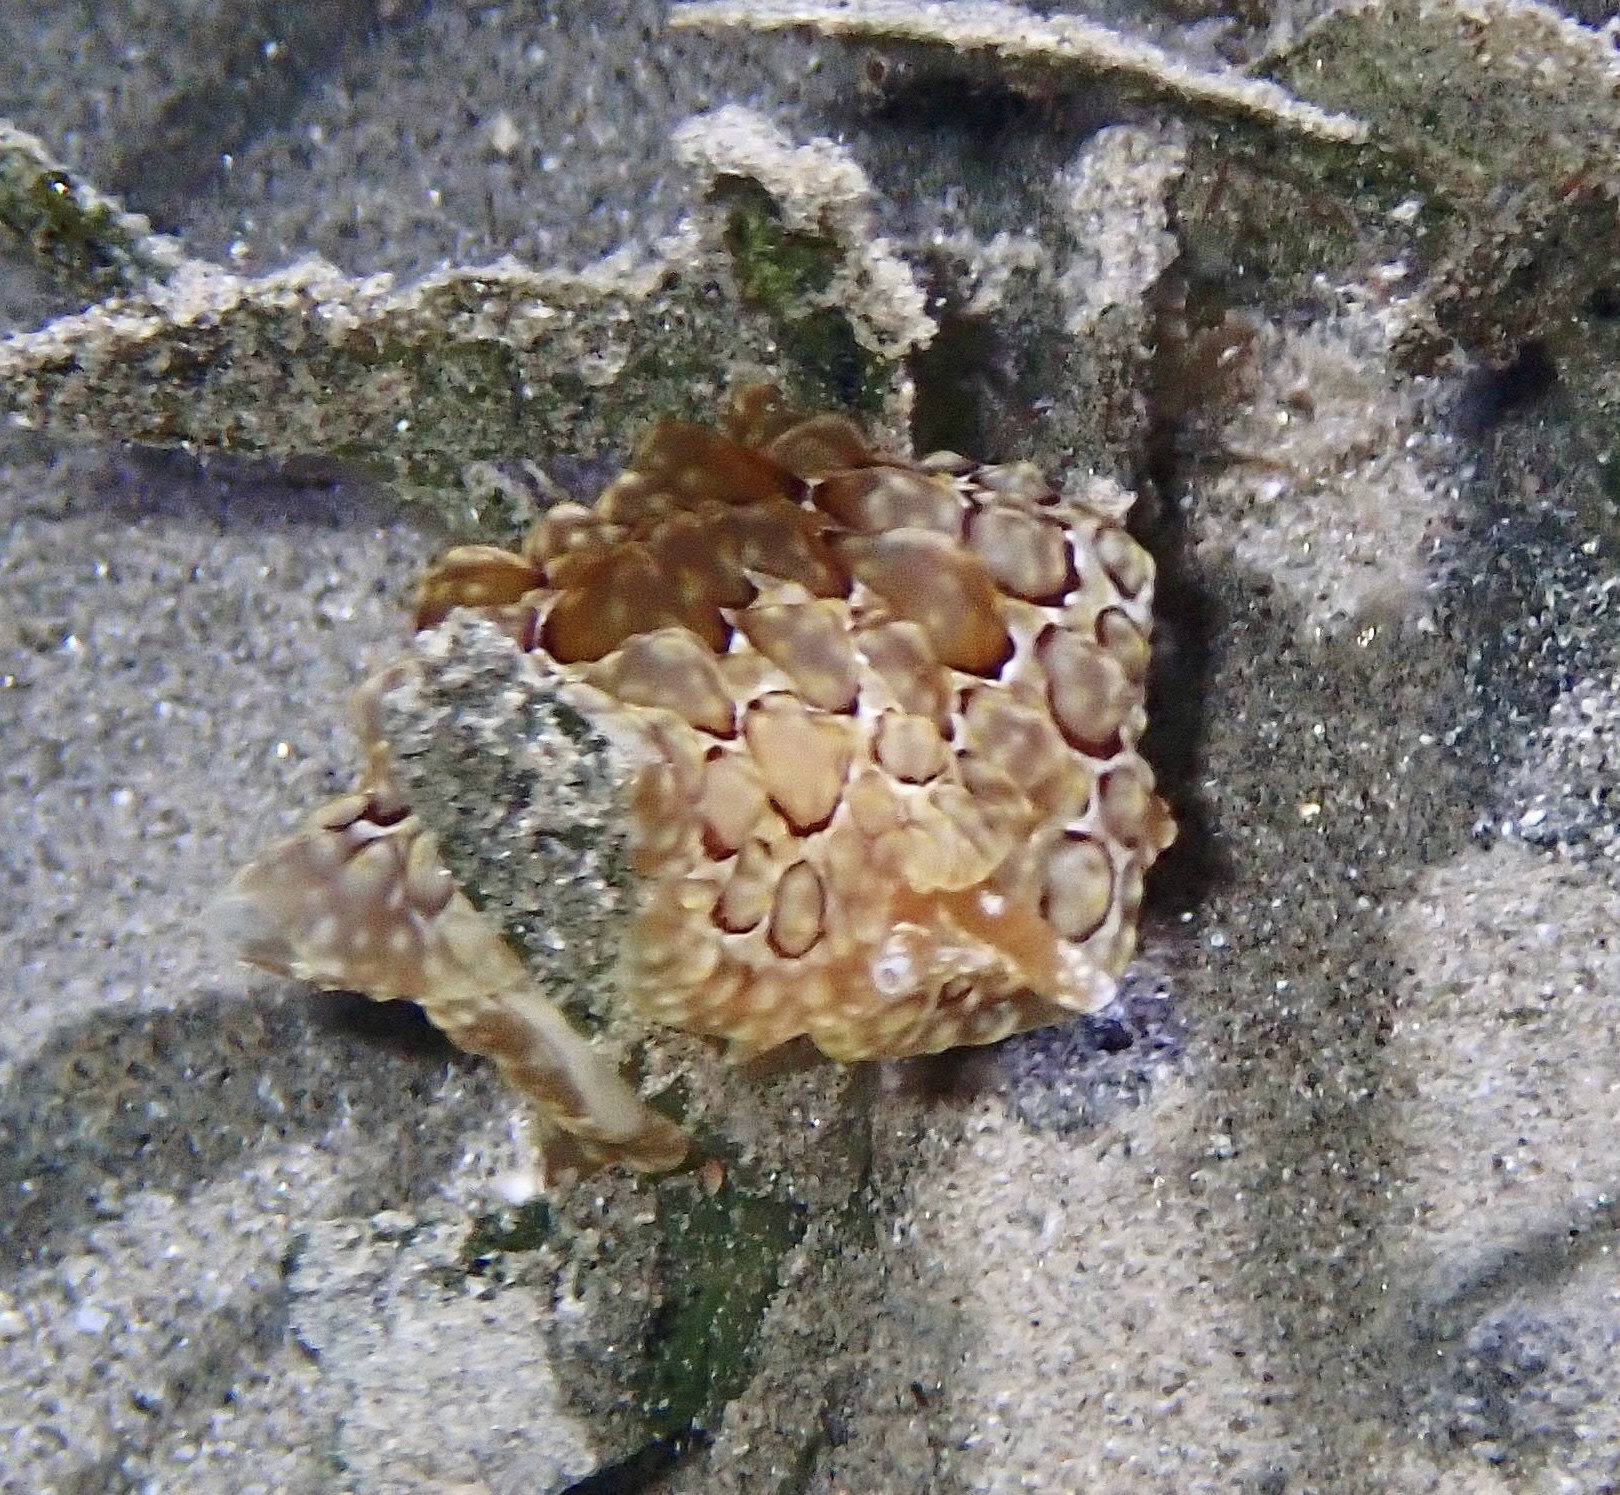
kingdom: Animalia
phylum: Mollusca
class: Gastropoda
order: Pleurobranchida
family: Pleurobranchidae
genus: Pleurobranchus
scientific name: Pleurobranchus forskalii
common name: Forskal's side-gilled sea slug
